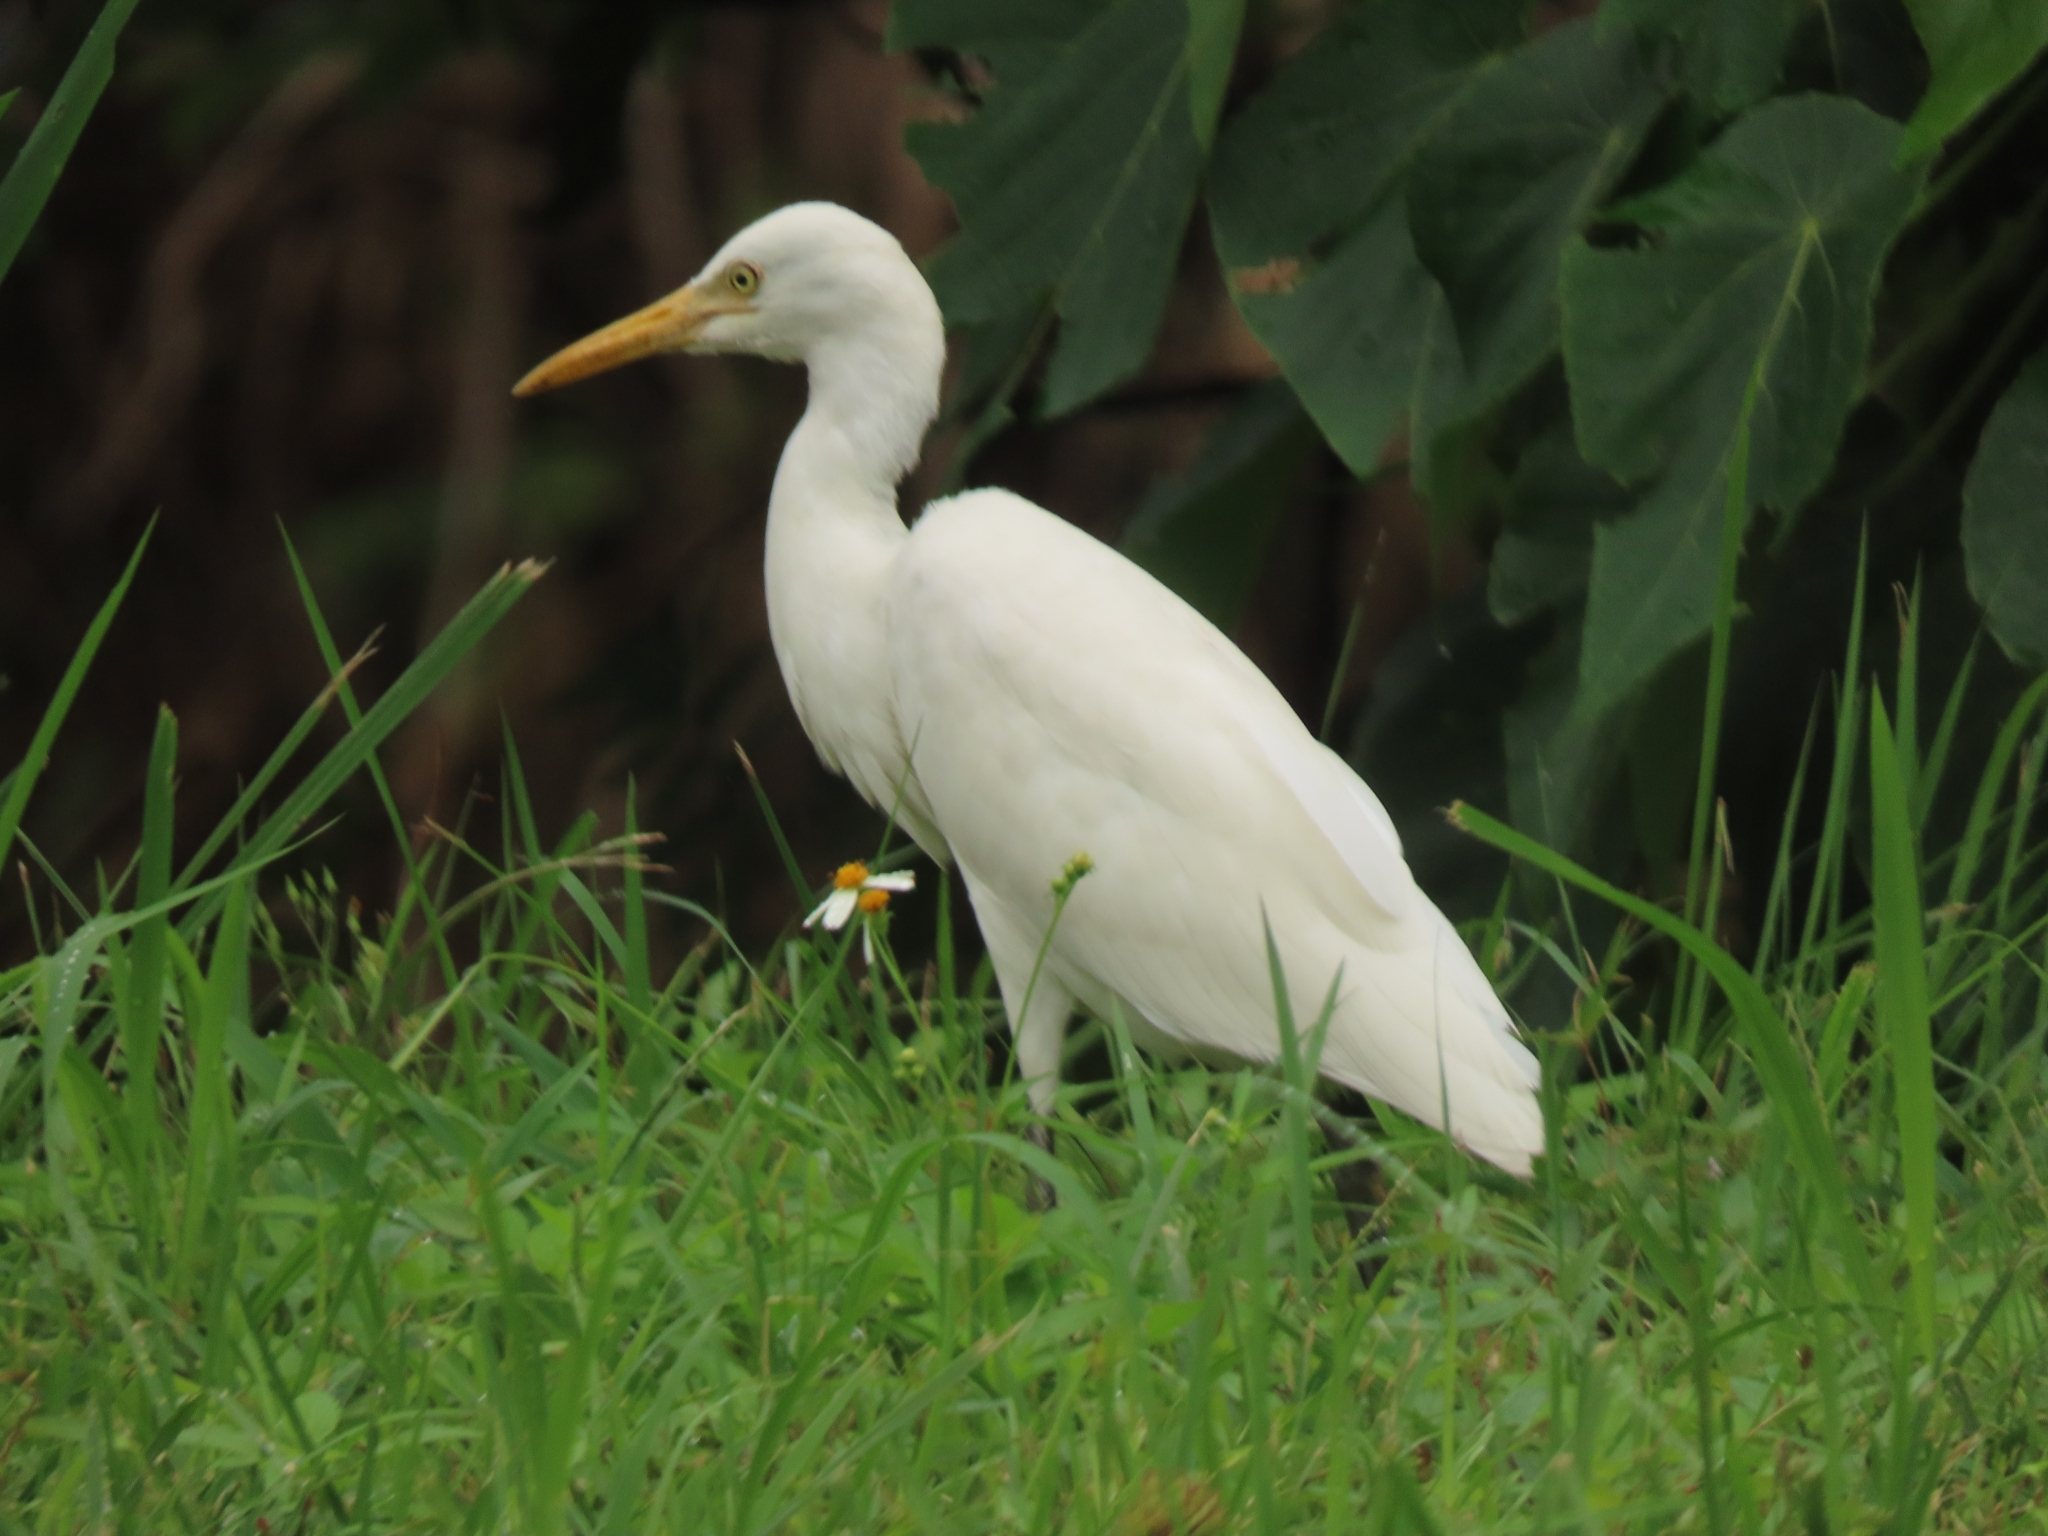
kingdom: Animalia
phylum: Chordata
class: Aves
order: Pelecaniformes
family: Ardeidae
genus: Bubulcus
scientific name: Bubulcus coromandus
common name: Eastern cattle egret
